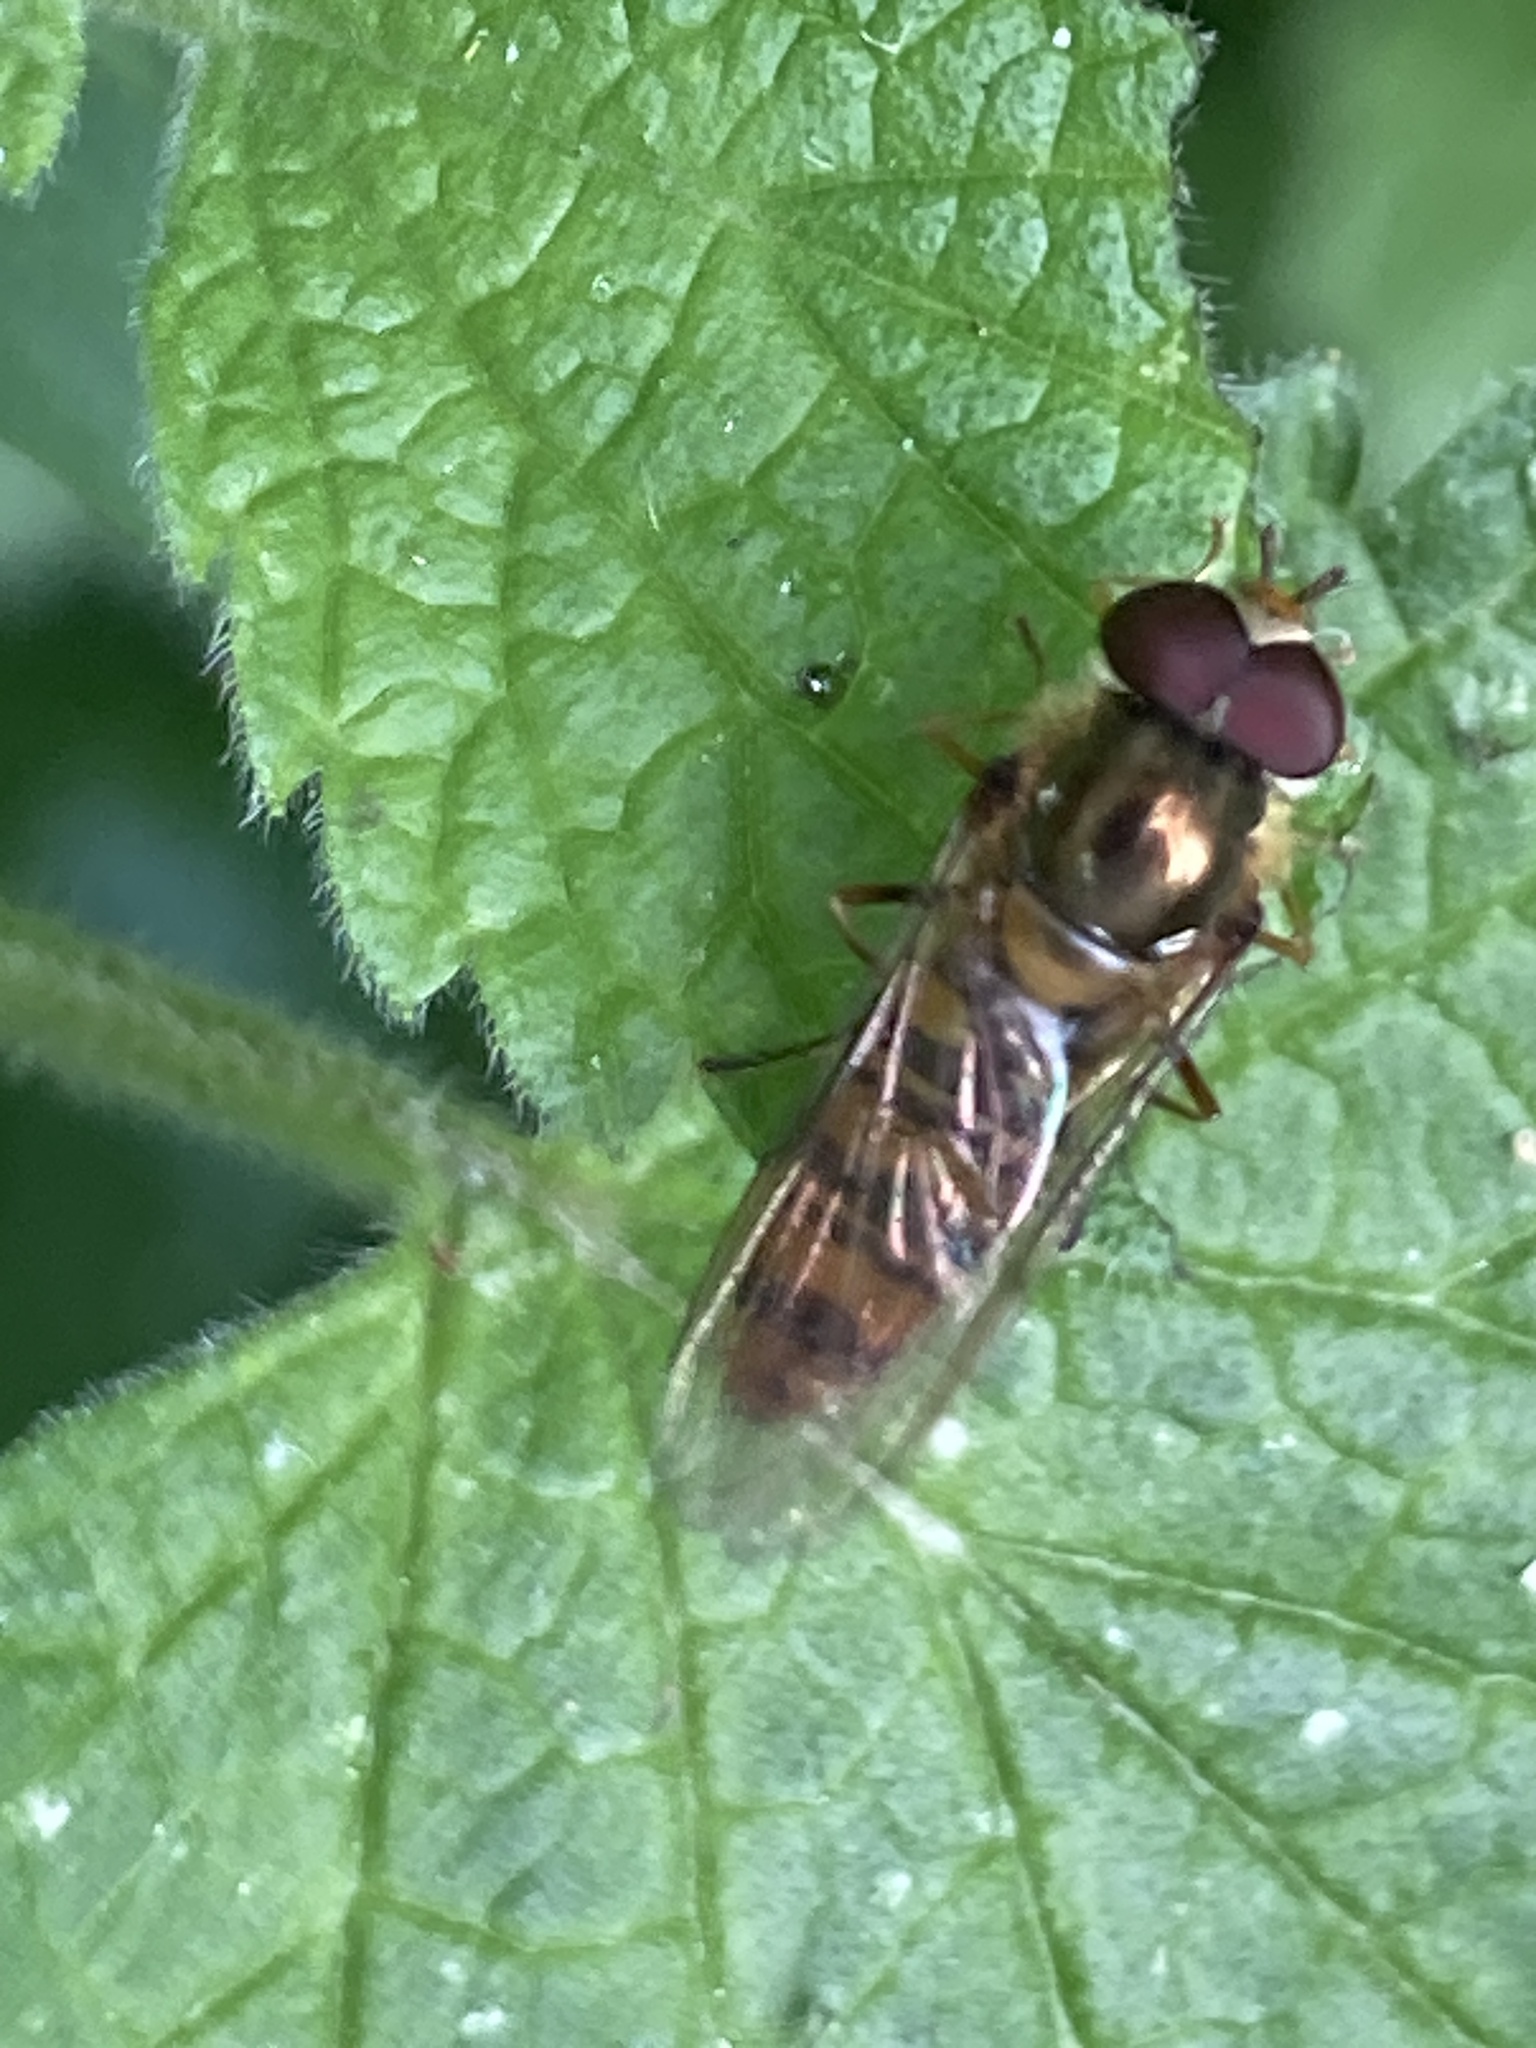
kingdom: Animalia
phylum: Arthropoda
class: Insecta
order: Diptera
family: Syrphidae
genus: Episyrphus
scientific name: Episyrphus balteatus
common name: Marmalade hoverfly
